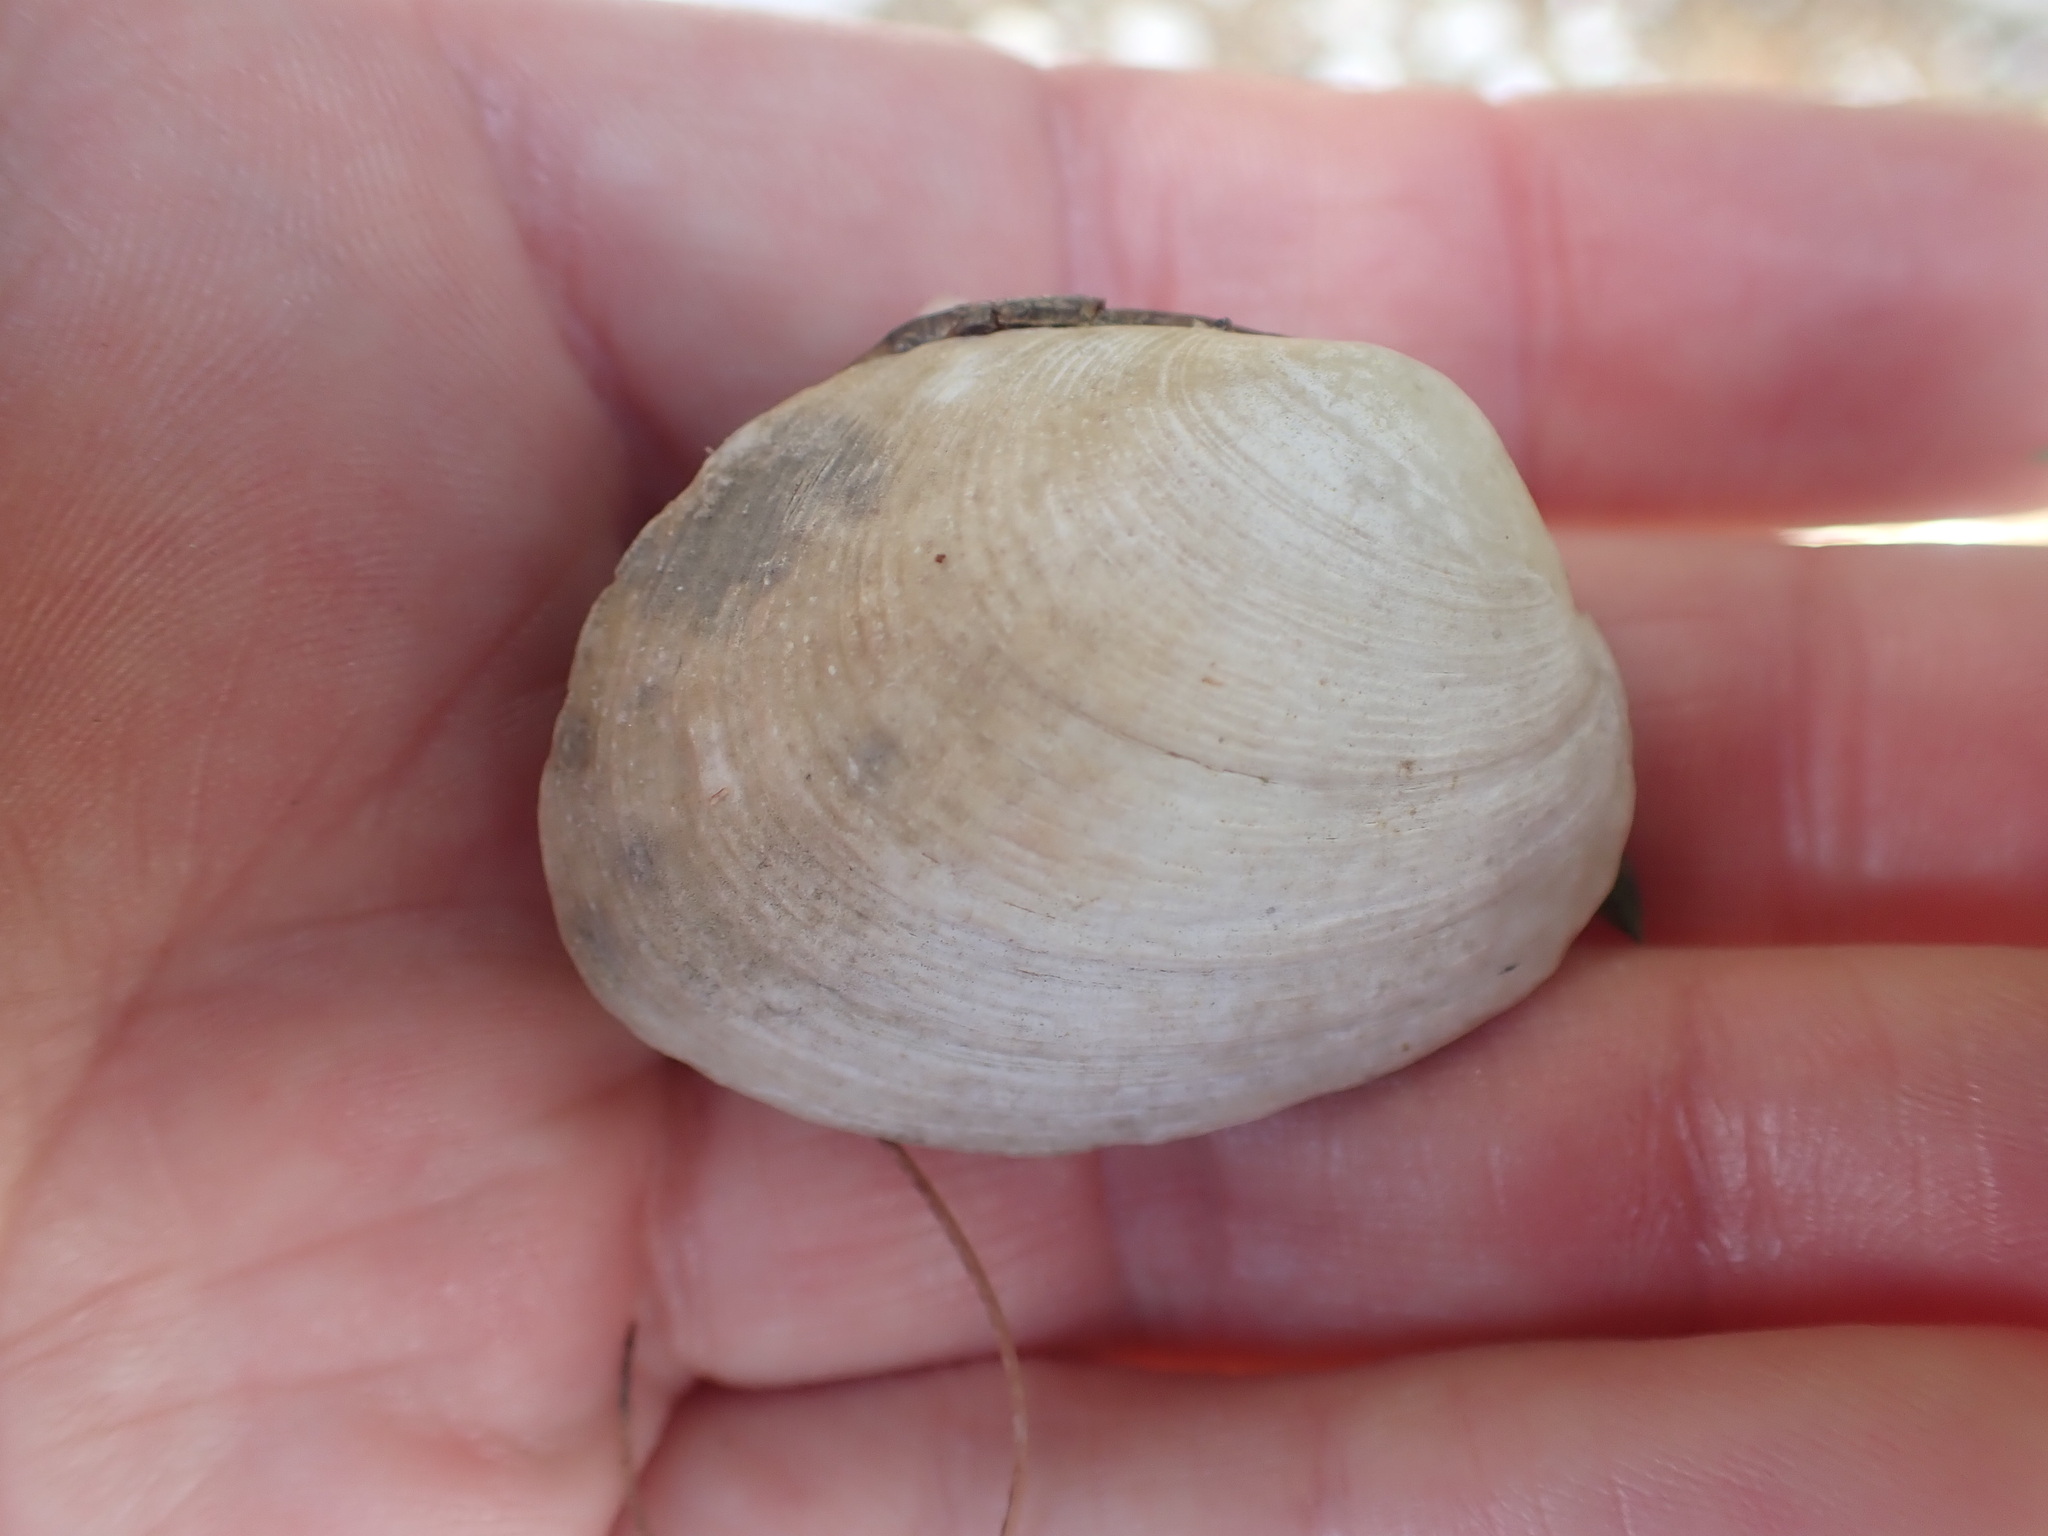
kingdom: Animalia
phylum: Mollusca
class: Bivalvia
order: Venerida
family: Veneridae
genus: Venerupis
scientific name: Venerupis largillierti
